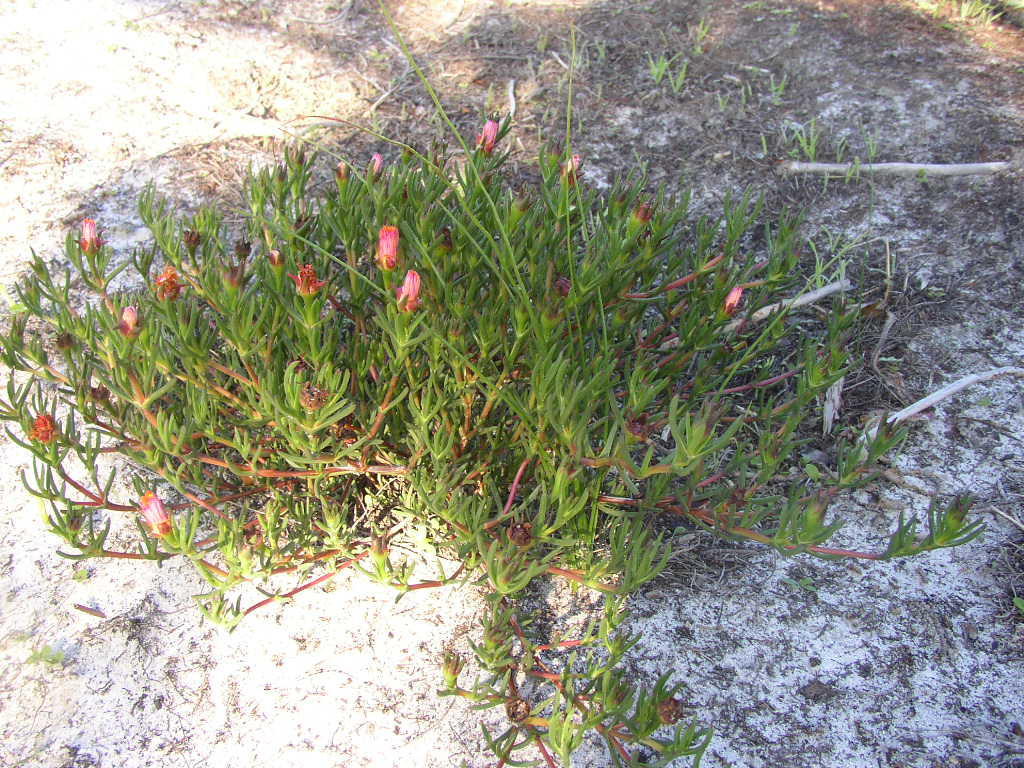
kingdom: Plantae
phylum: Tracheophyta
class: Magnoliopsida
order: Caryophyllales
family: Aizoaceae
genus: Lampranthus
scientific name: Lampranthus bicolor
